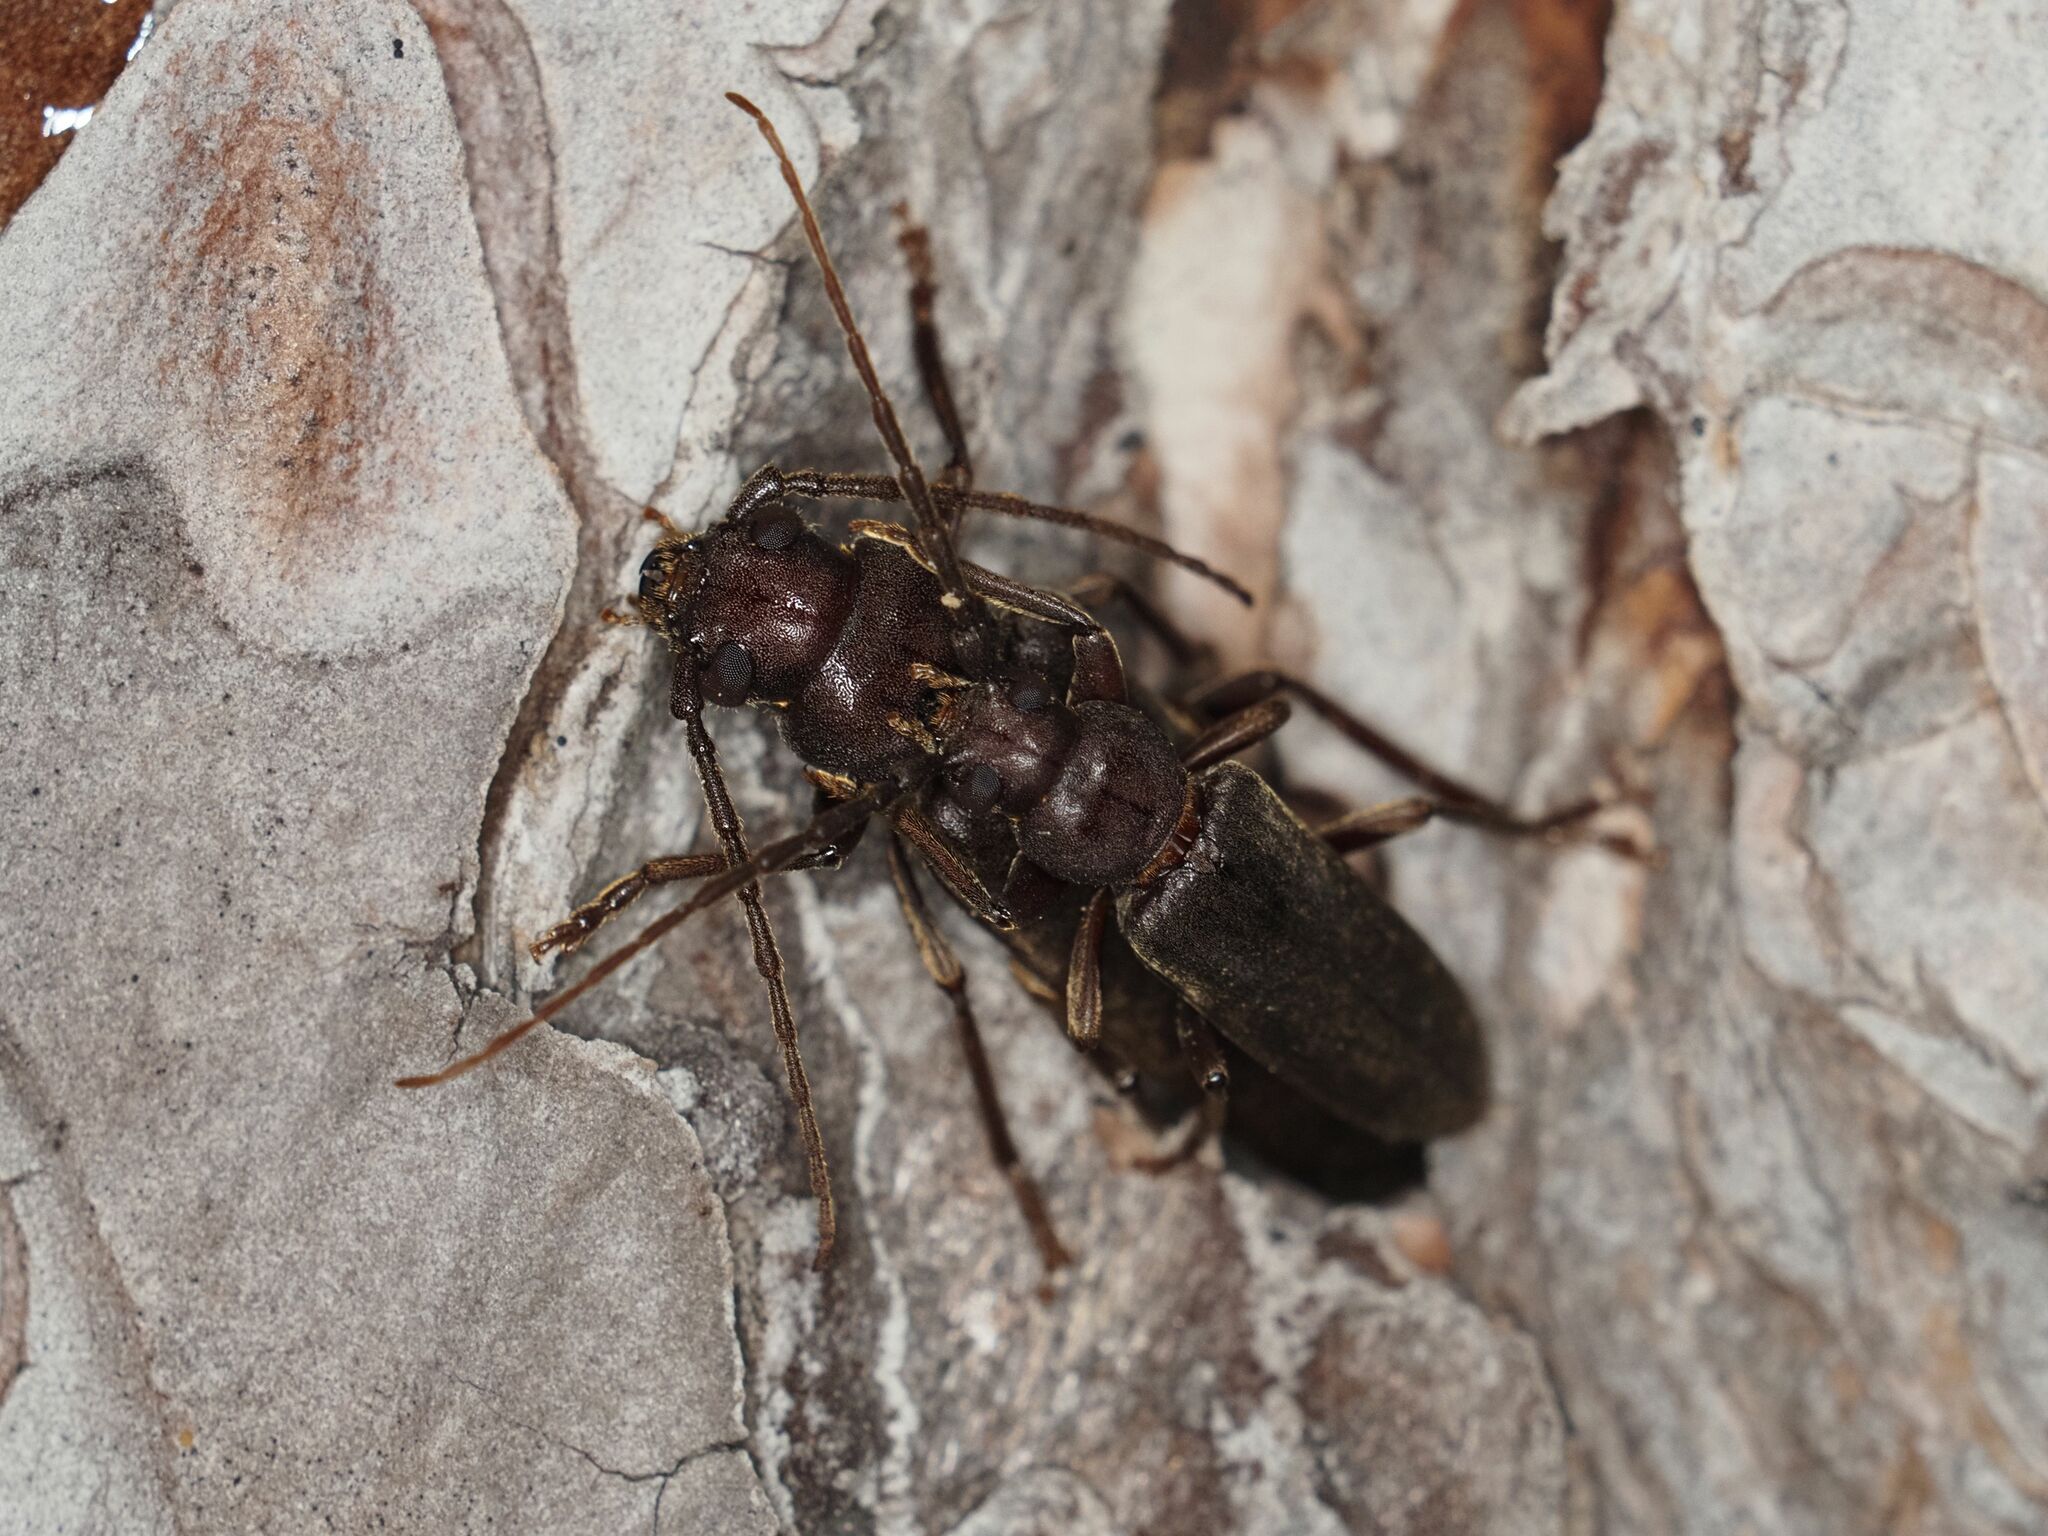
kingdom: Animalia
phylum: Arthropoda
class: Insecta
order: Coleoptera
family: Cerambycidae
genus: Arhopalus
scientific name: Arhopalus rusticus
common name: Rust pine borer
